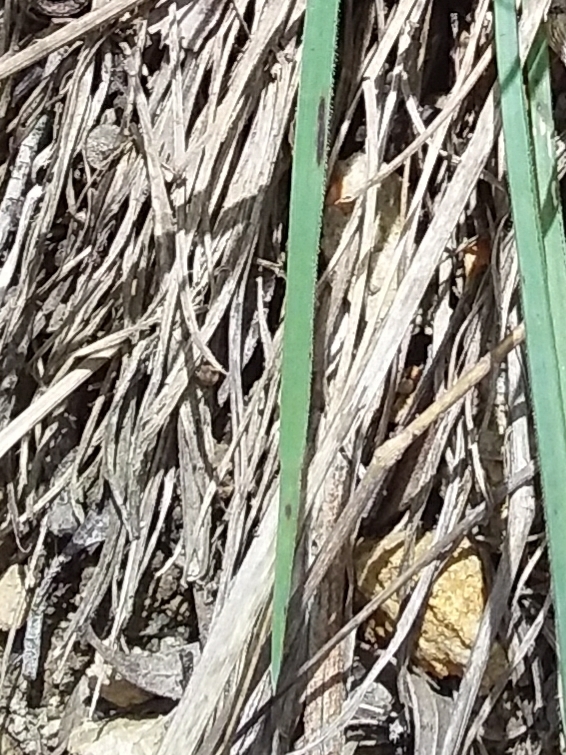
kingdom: Plantae
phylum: Tracheophyta
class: Liliopsida
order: Poales
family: Poaceae
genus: Microlaena
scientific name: Microlaena stipoides
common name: Meadow ricegrass
